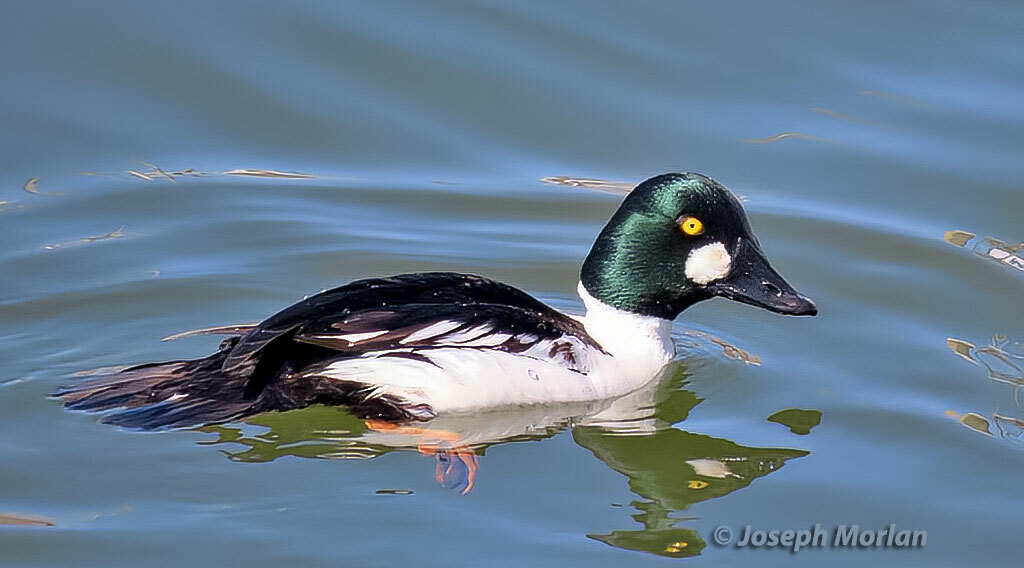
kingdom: Animalia
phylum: Chordata
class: Aves
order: Anseriformes
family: Anatidae
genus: Bucephala
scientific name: Bucephala clangula
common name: Common goldeneye
